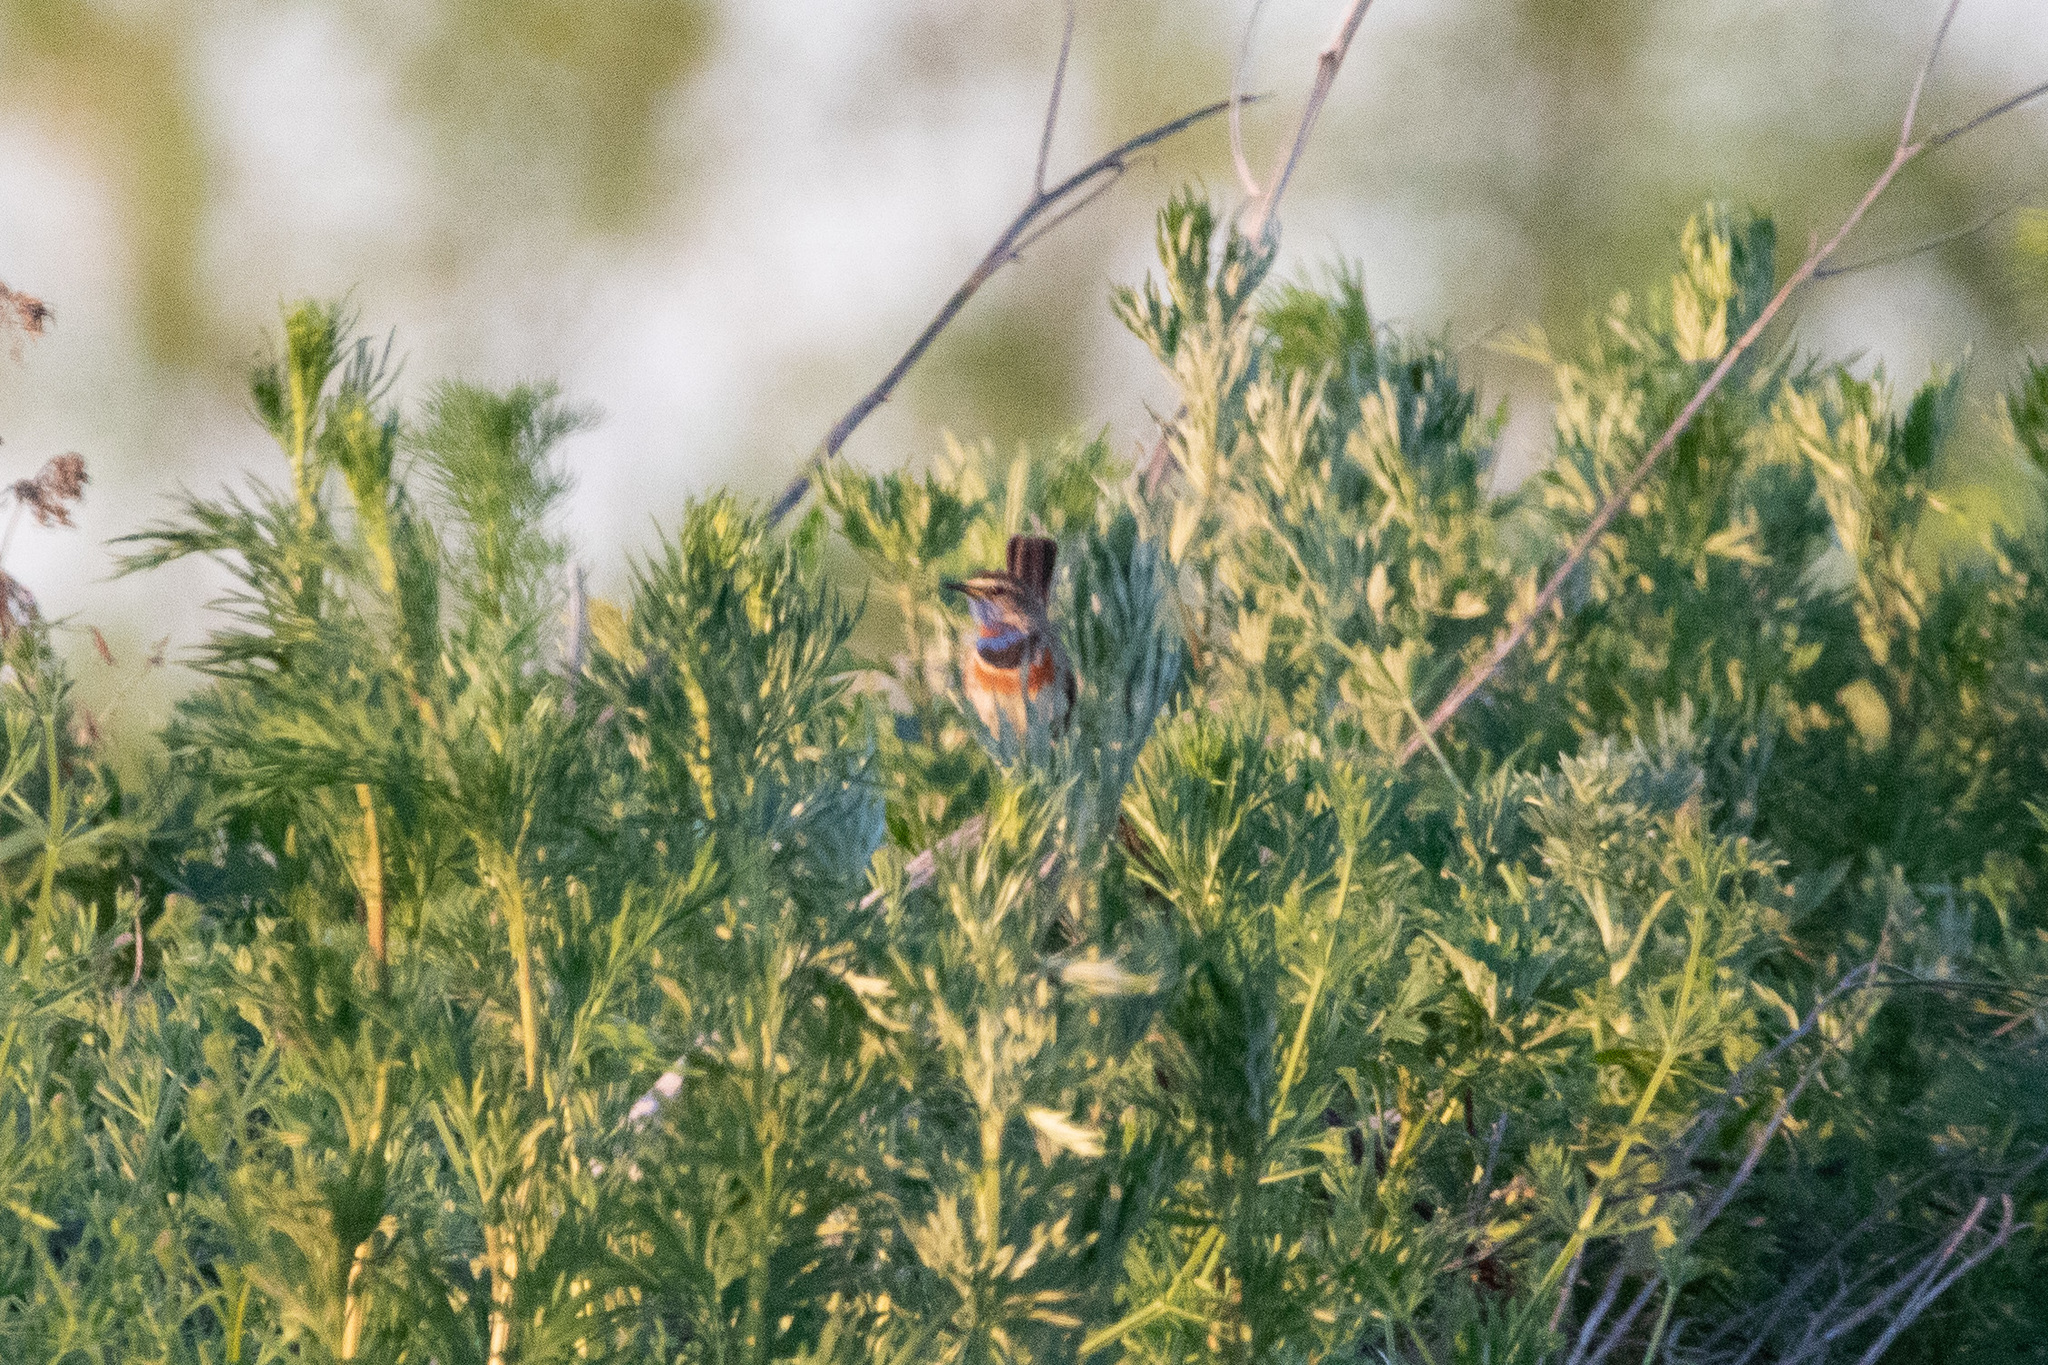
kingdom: Animalia
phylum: Chordata
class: Aves
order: Passeriformes
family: Muscicapidae
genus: Luscinia
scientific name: Luscinia svecica
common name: Bluethroat
